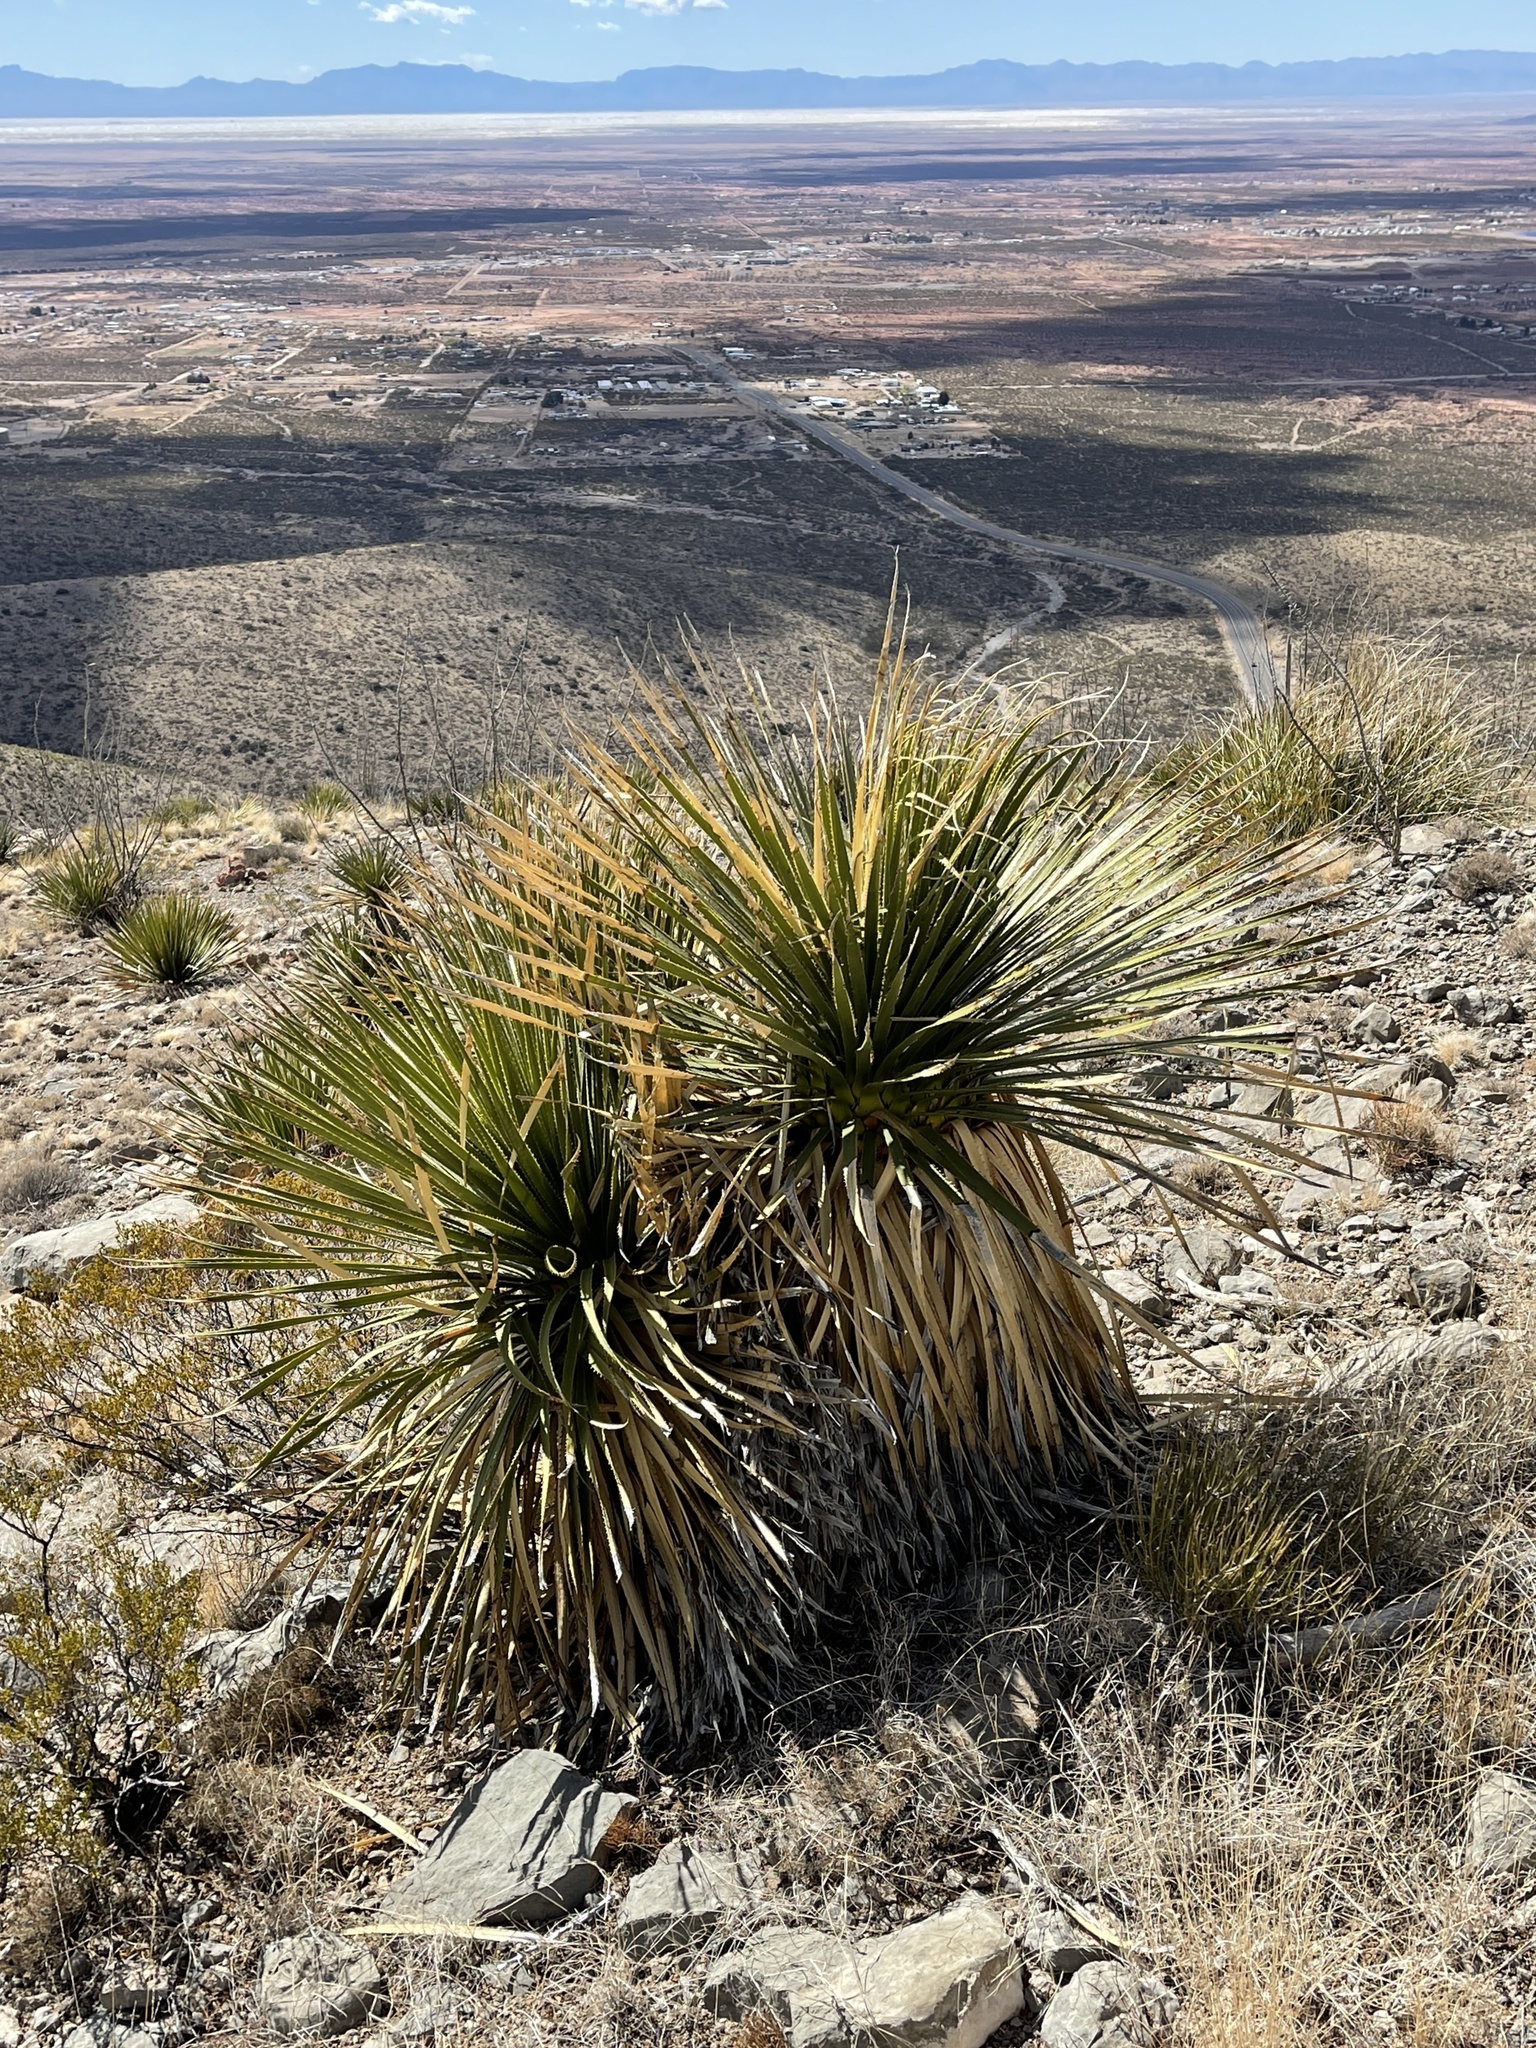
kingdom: Plantae
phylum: Tracheophyta
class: Liliopsida
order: Asparagales
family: Asparagaceae
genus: Dasylirion
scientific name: Dasylirion wheeleri
